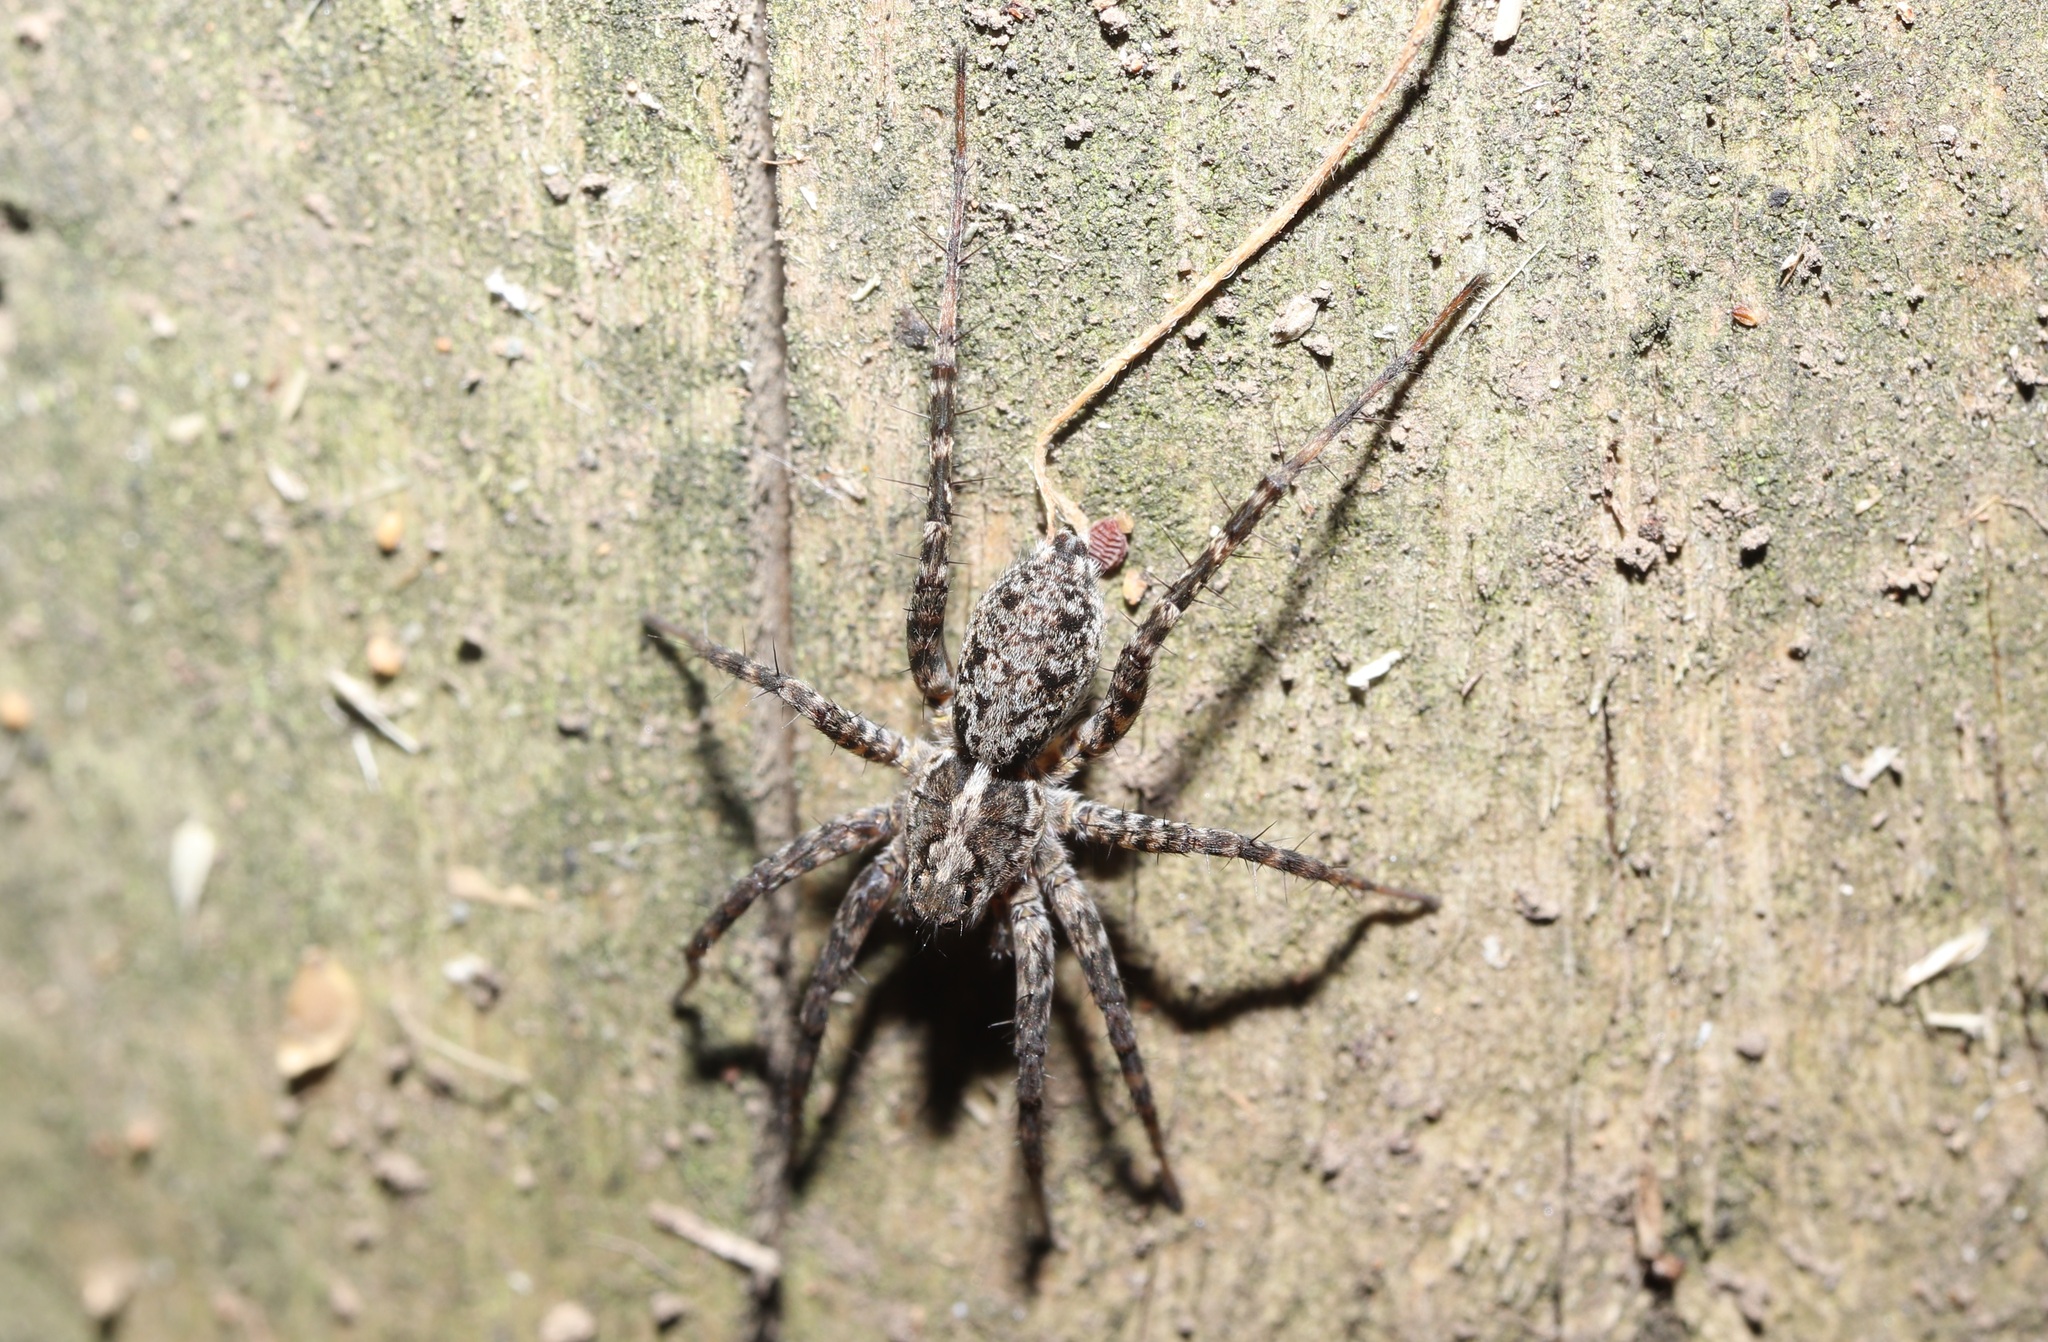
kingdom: Animalia
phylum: Arthropoda
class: Arachnida
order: Araneae
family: Lycosidae
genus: Pardosa
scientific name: Pardosa astrigera
